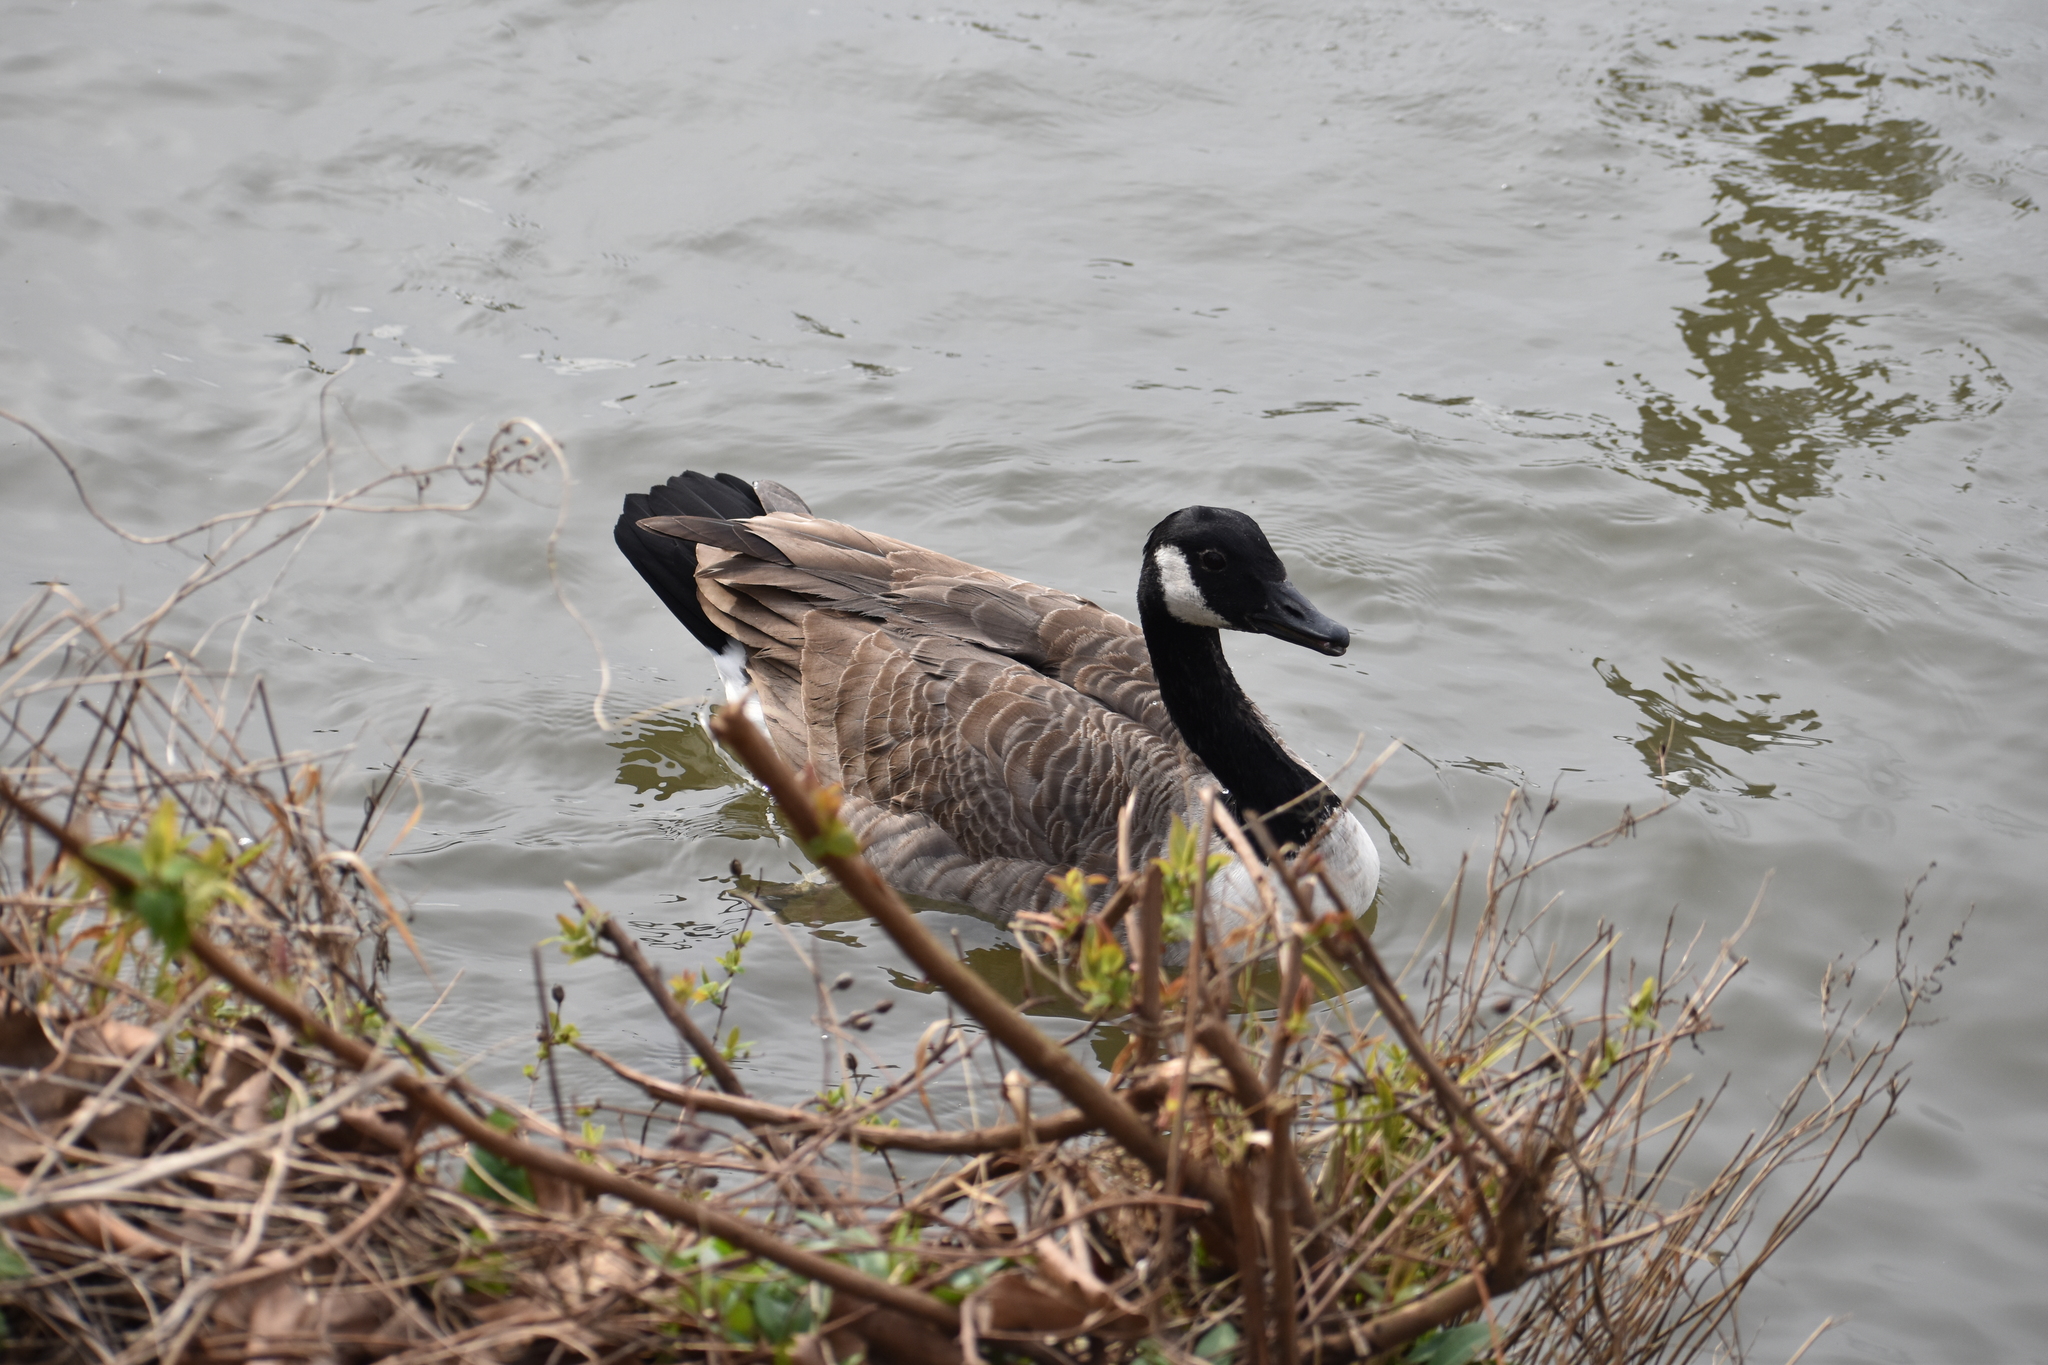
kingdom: Animalia
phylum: Chordata
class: Aves
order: Anseriformes
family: Anatidae
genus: Branta
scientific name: Branta canadensis
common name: Canada goose
